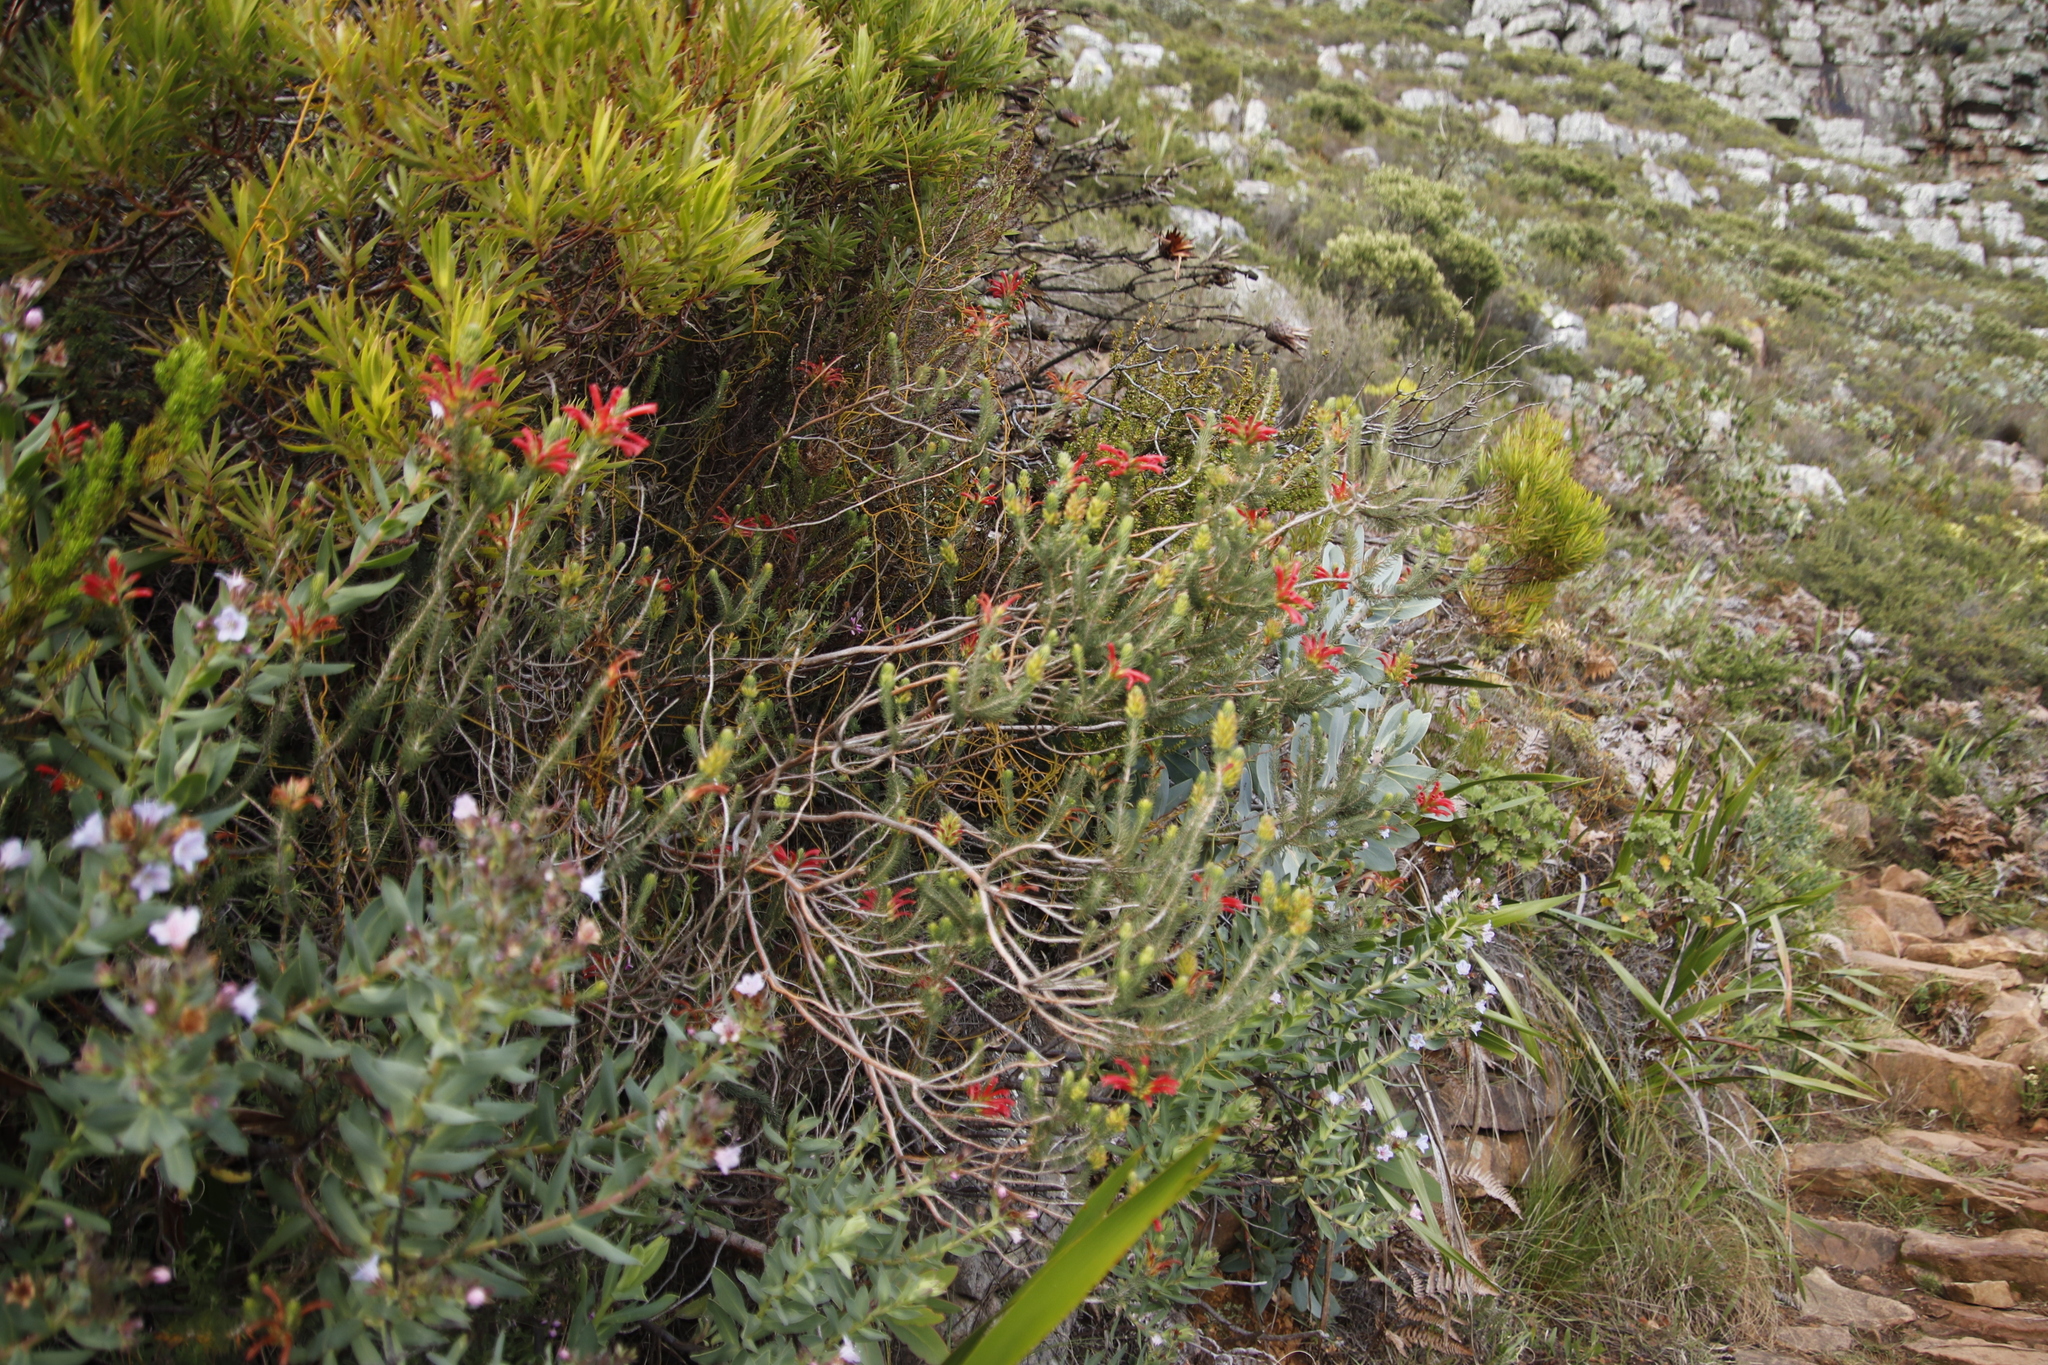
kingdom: Plantae
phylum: Tracheophyta
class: Magnoliopsida
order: Ericales
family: Ericaceae
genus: Erica
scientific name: Erica abietina
